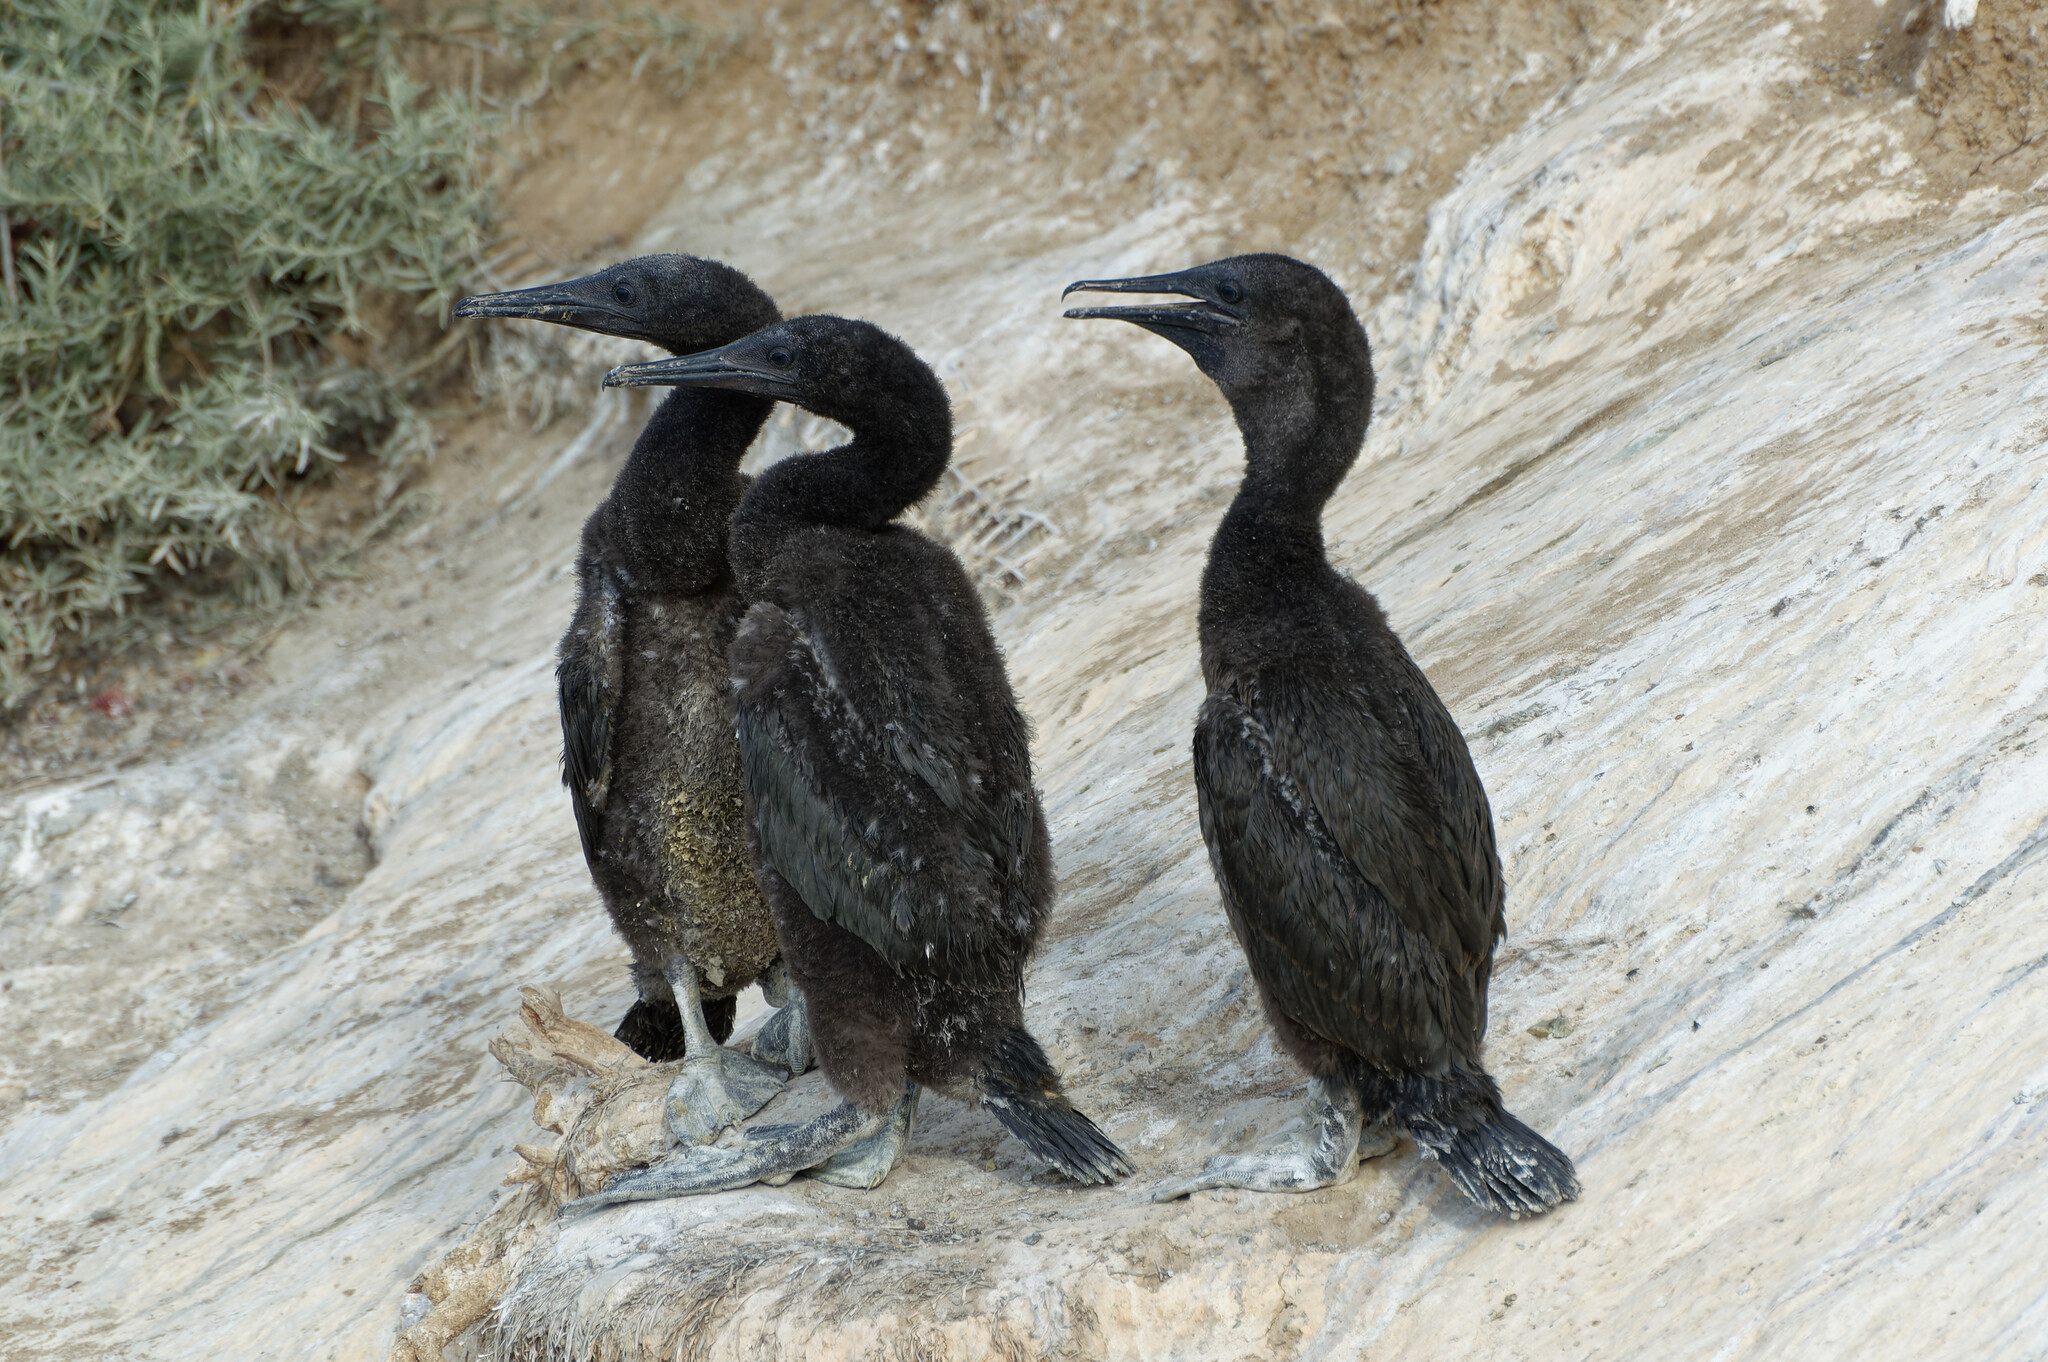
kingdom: Animalia
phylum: Chordata
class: Aves
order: Suliformes
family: Phalacrocoracidae
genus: Urile
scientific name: Urile penicillatus
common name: Brandt's cormorant
